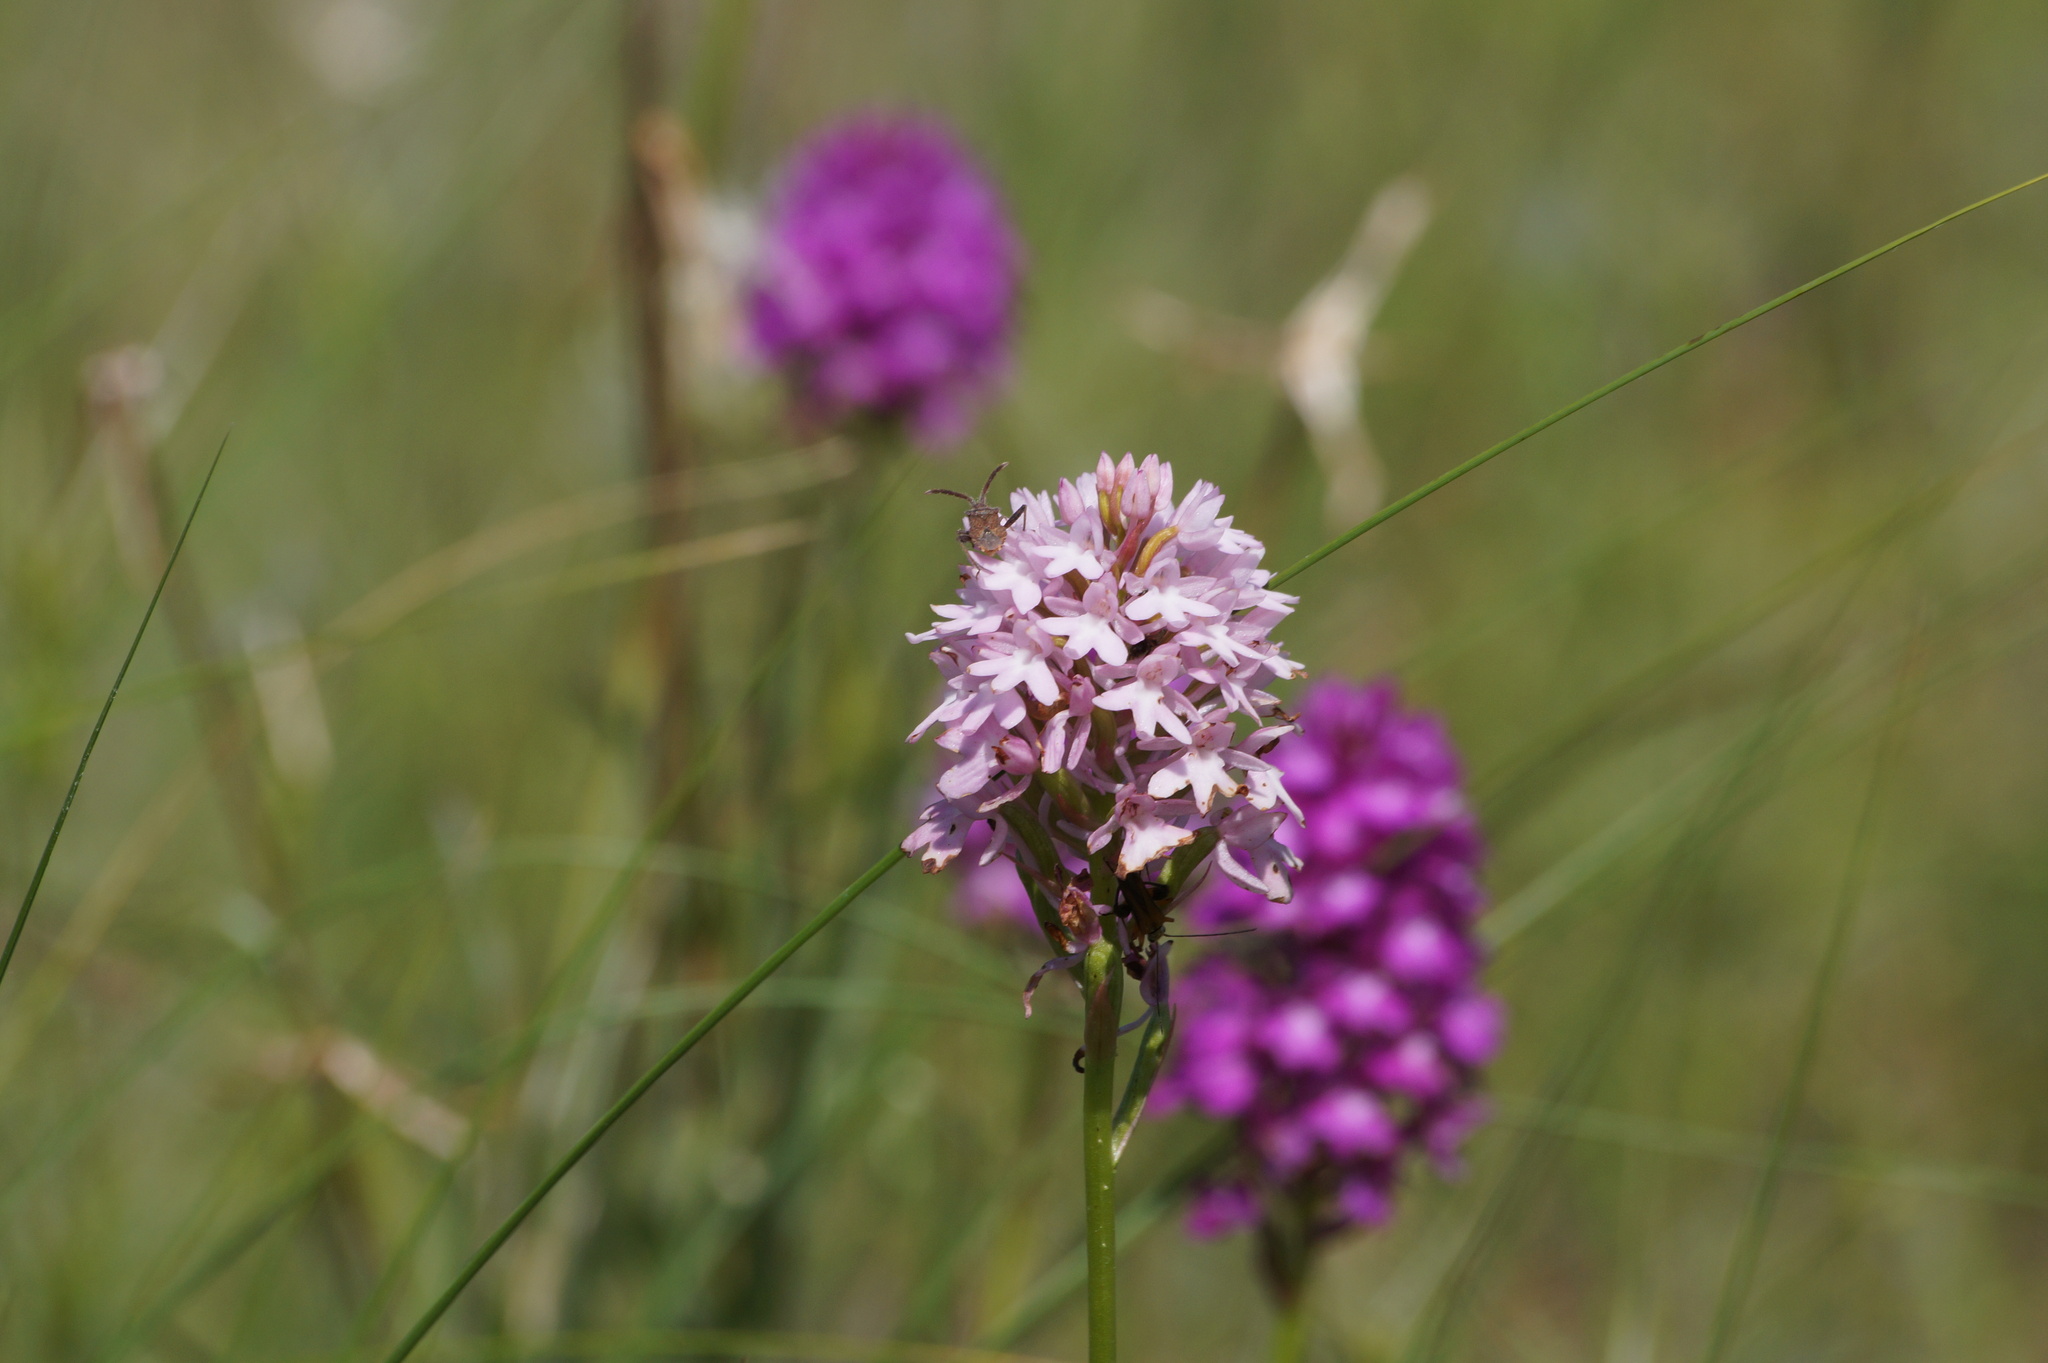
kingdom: Plantae
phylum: Tracheophyta
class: Liliopsida
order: Asparagales
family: Orchidaceae
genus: Anacamptis
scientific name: Anacamptis pyramidalis
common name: Pyramidal orchid
